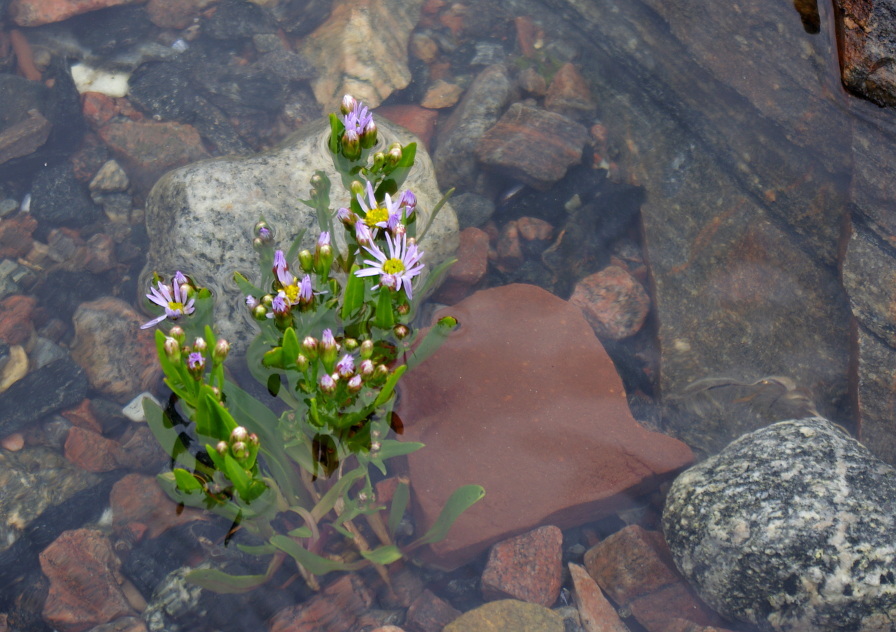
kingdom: Plantae
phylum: Tracheophyta
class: Magnoliopsida
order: Asterales
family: Asteraceae
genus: Tripolium
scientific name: Tripolium pannonicum
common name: Sea aster
